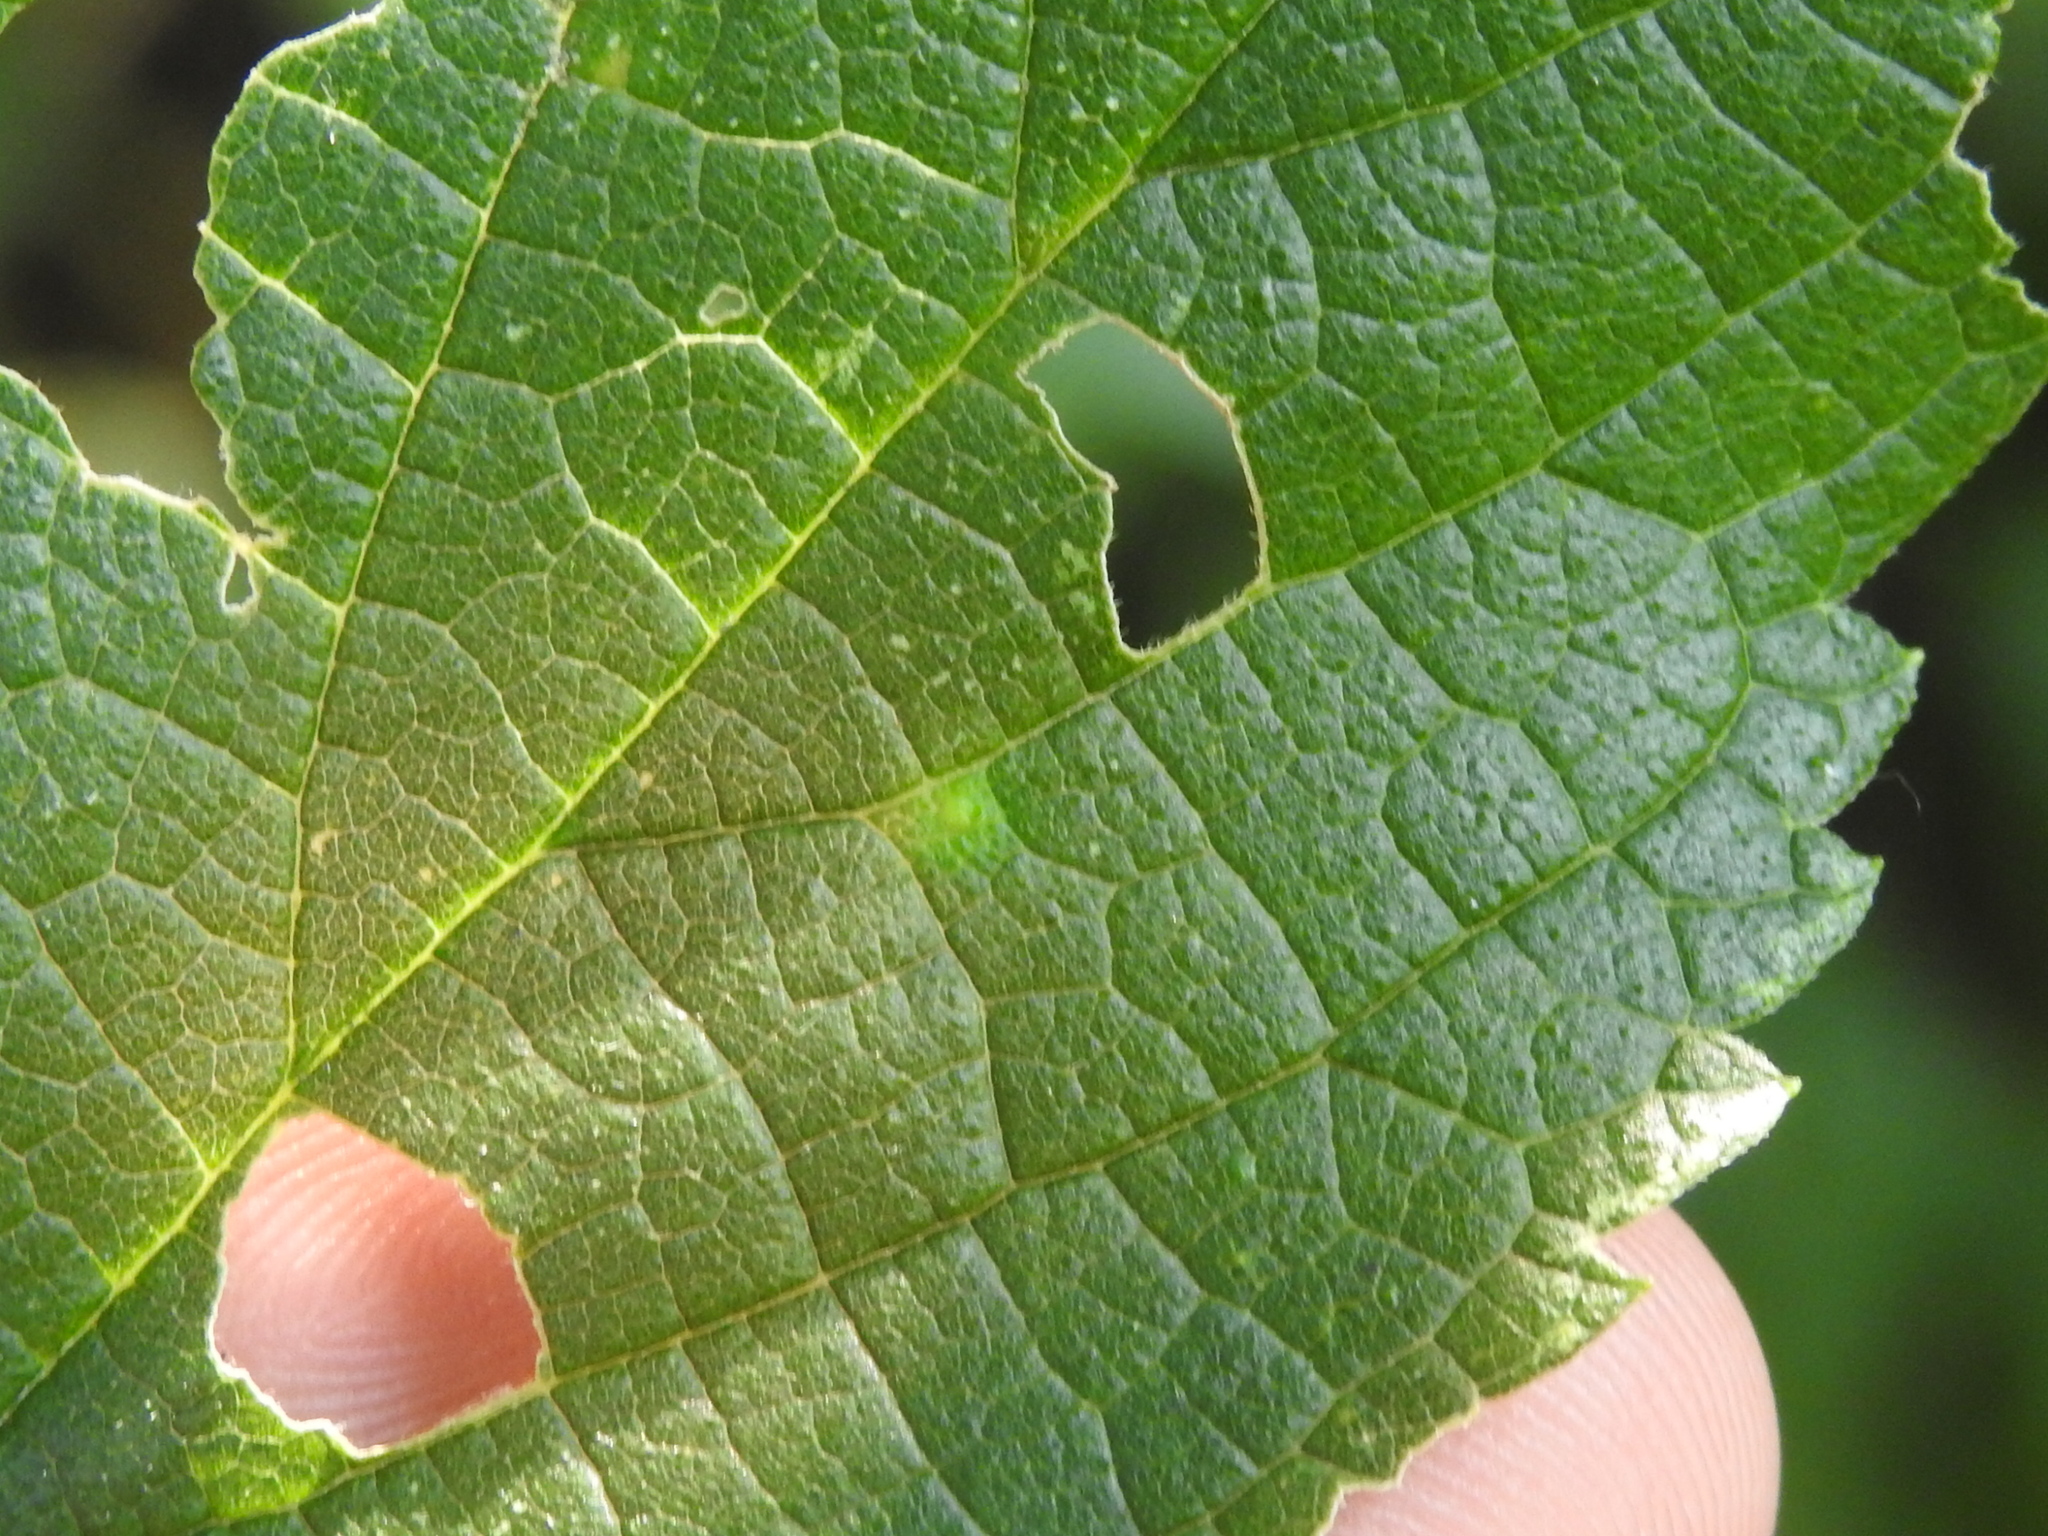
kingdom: Animalia
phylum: Arthropoda
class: Insecta
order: Diptera
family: Cecidomyiidae
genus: Celticecis
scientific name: Celticecis capsularis
